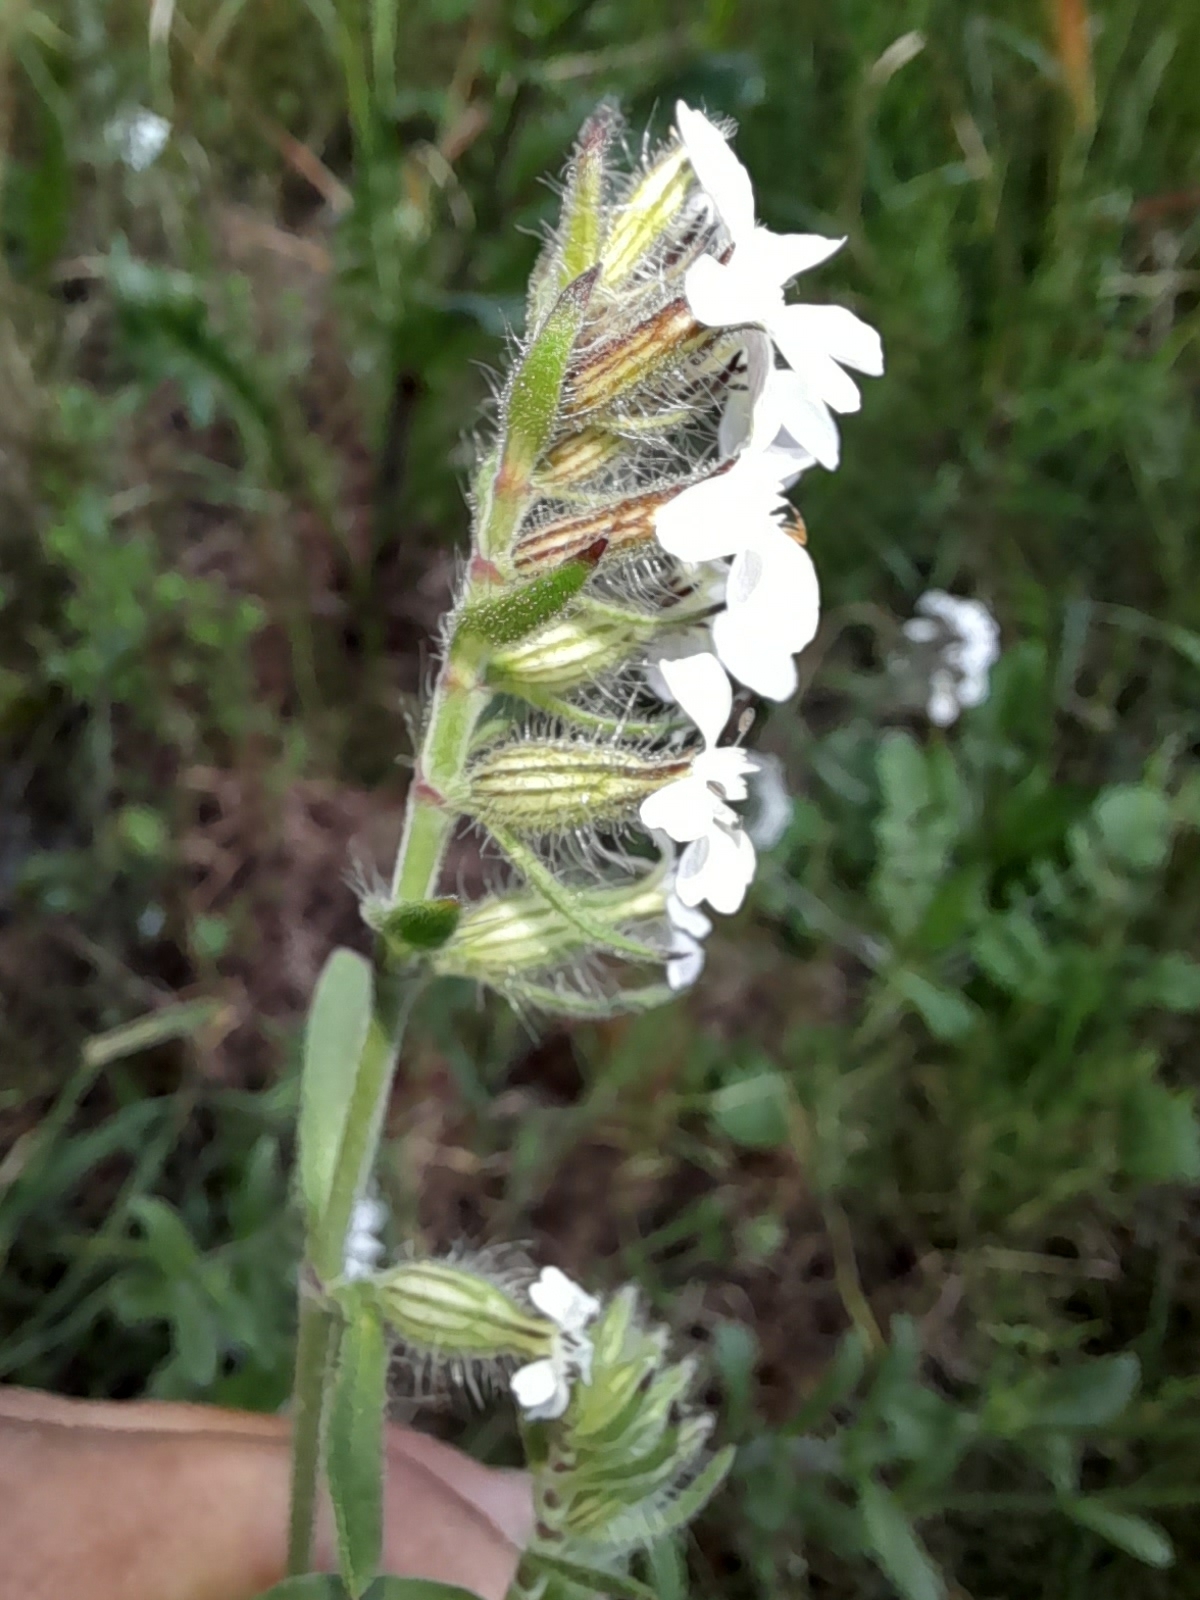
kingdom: Plantae
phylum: Tracheophyta
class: Magnoliopsida
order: Caryophyllales
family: Caryophyllaceae
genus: Silene
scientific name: Silene gallica
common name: Small-flowered catchfly
